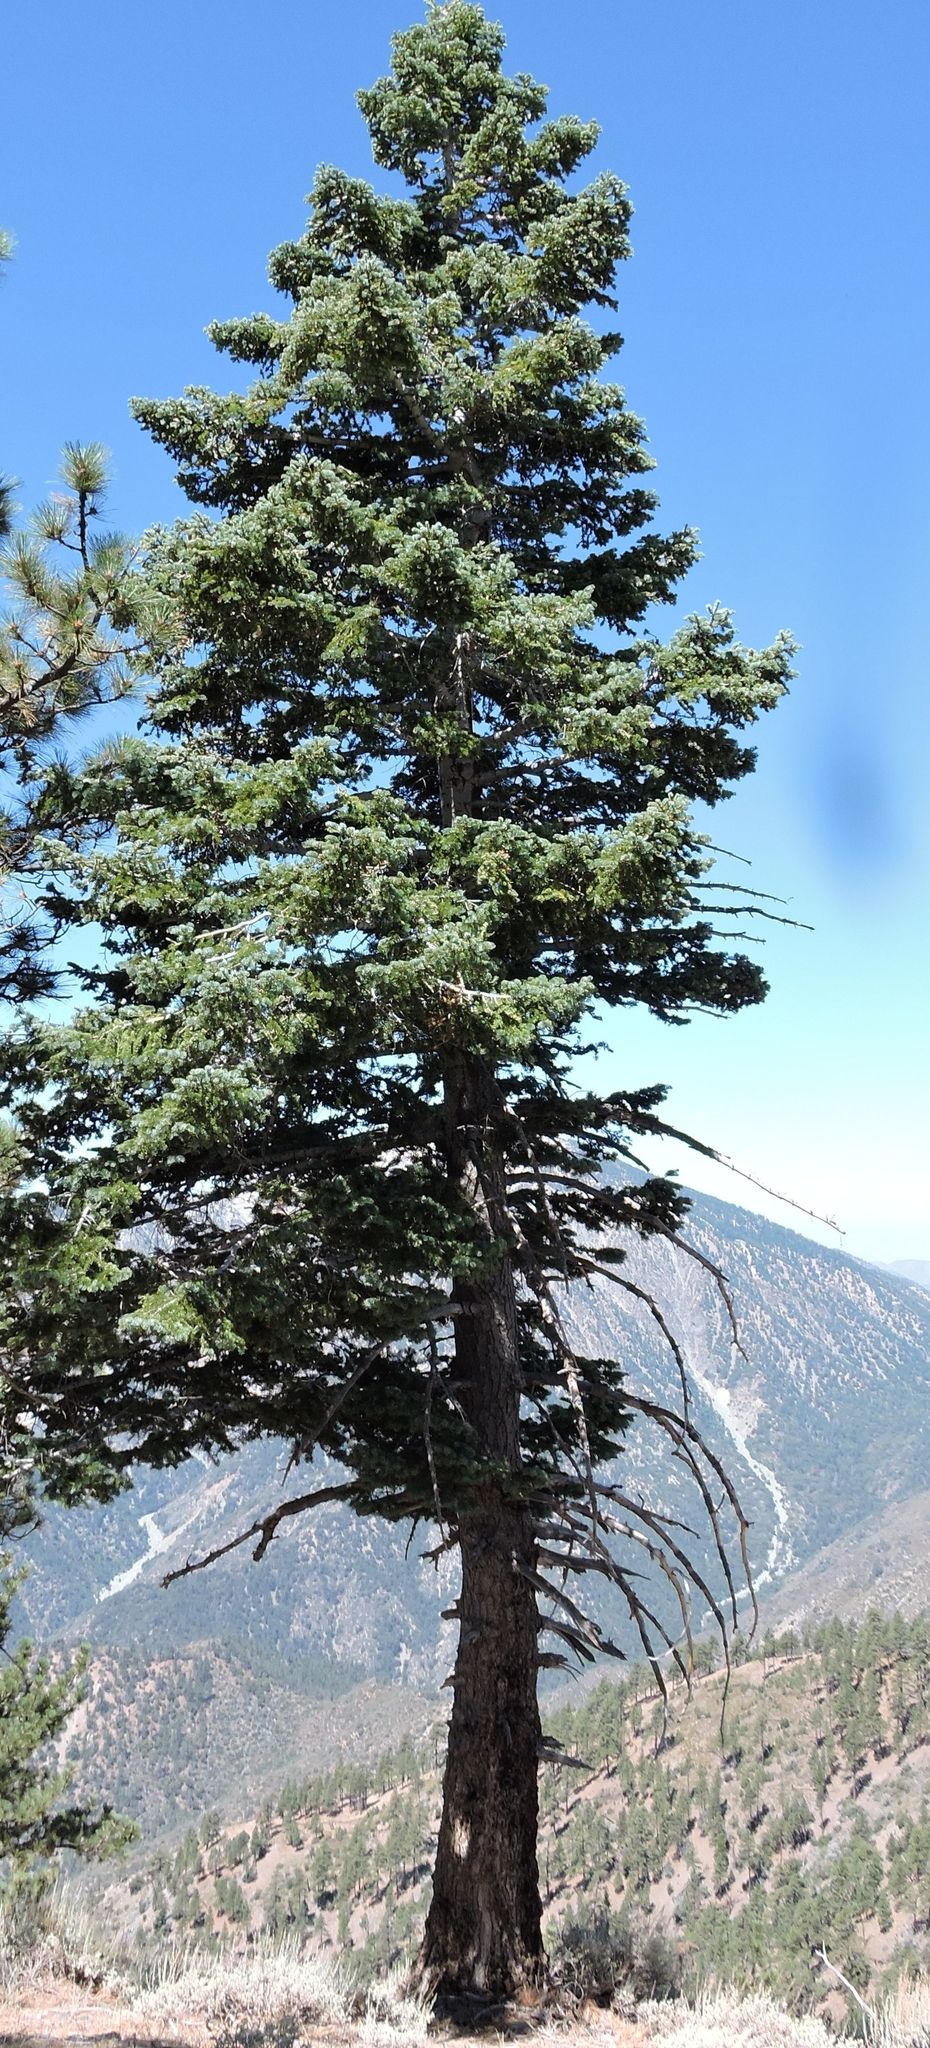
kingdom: Plantae
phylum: Tracheophyta
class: Pinopsida
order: Pinales
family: Pinaceae
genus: Abies
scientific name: Abies concolor
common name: Colorado fir
